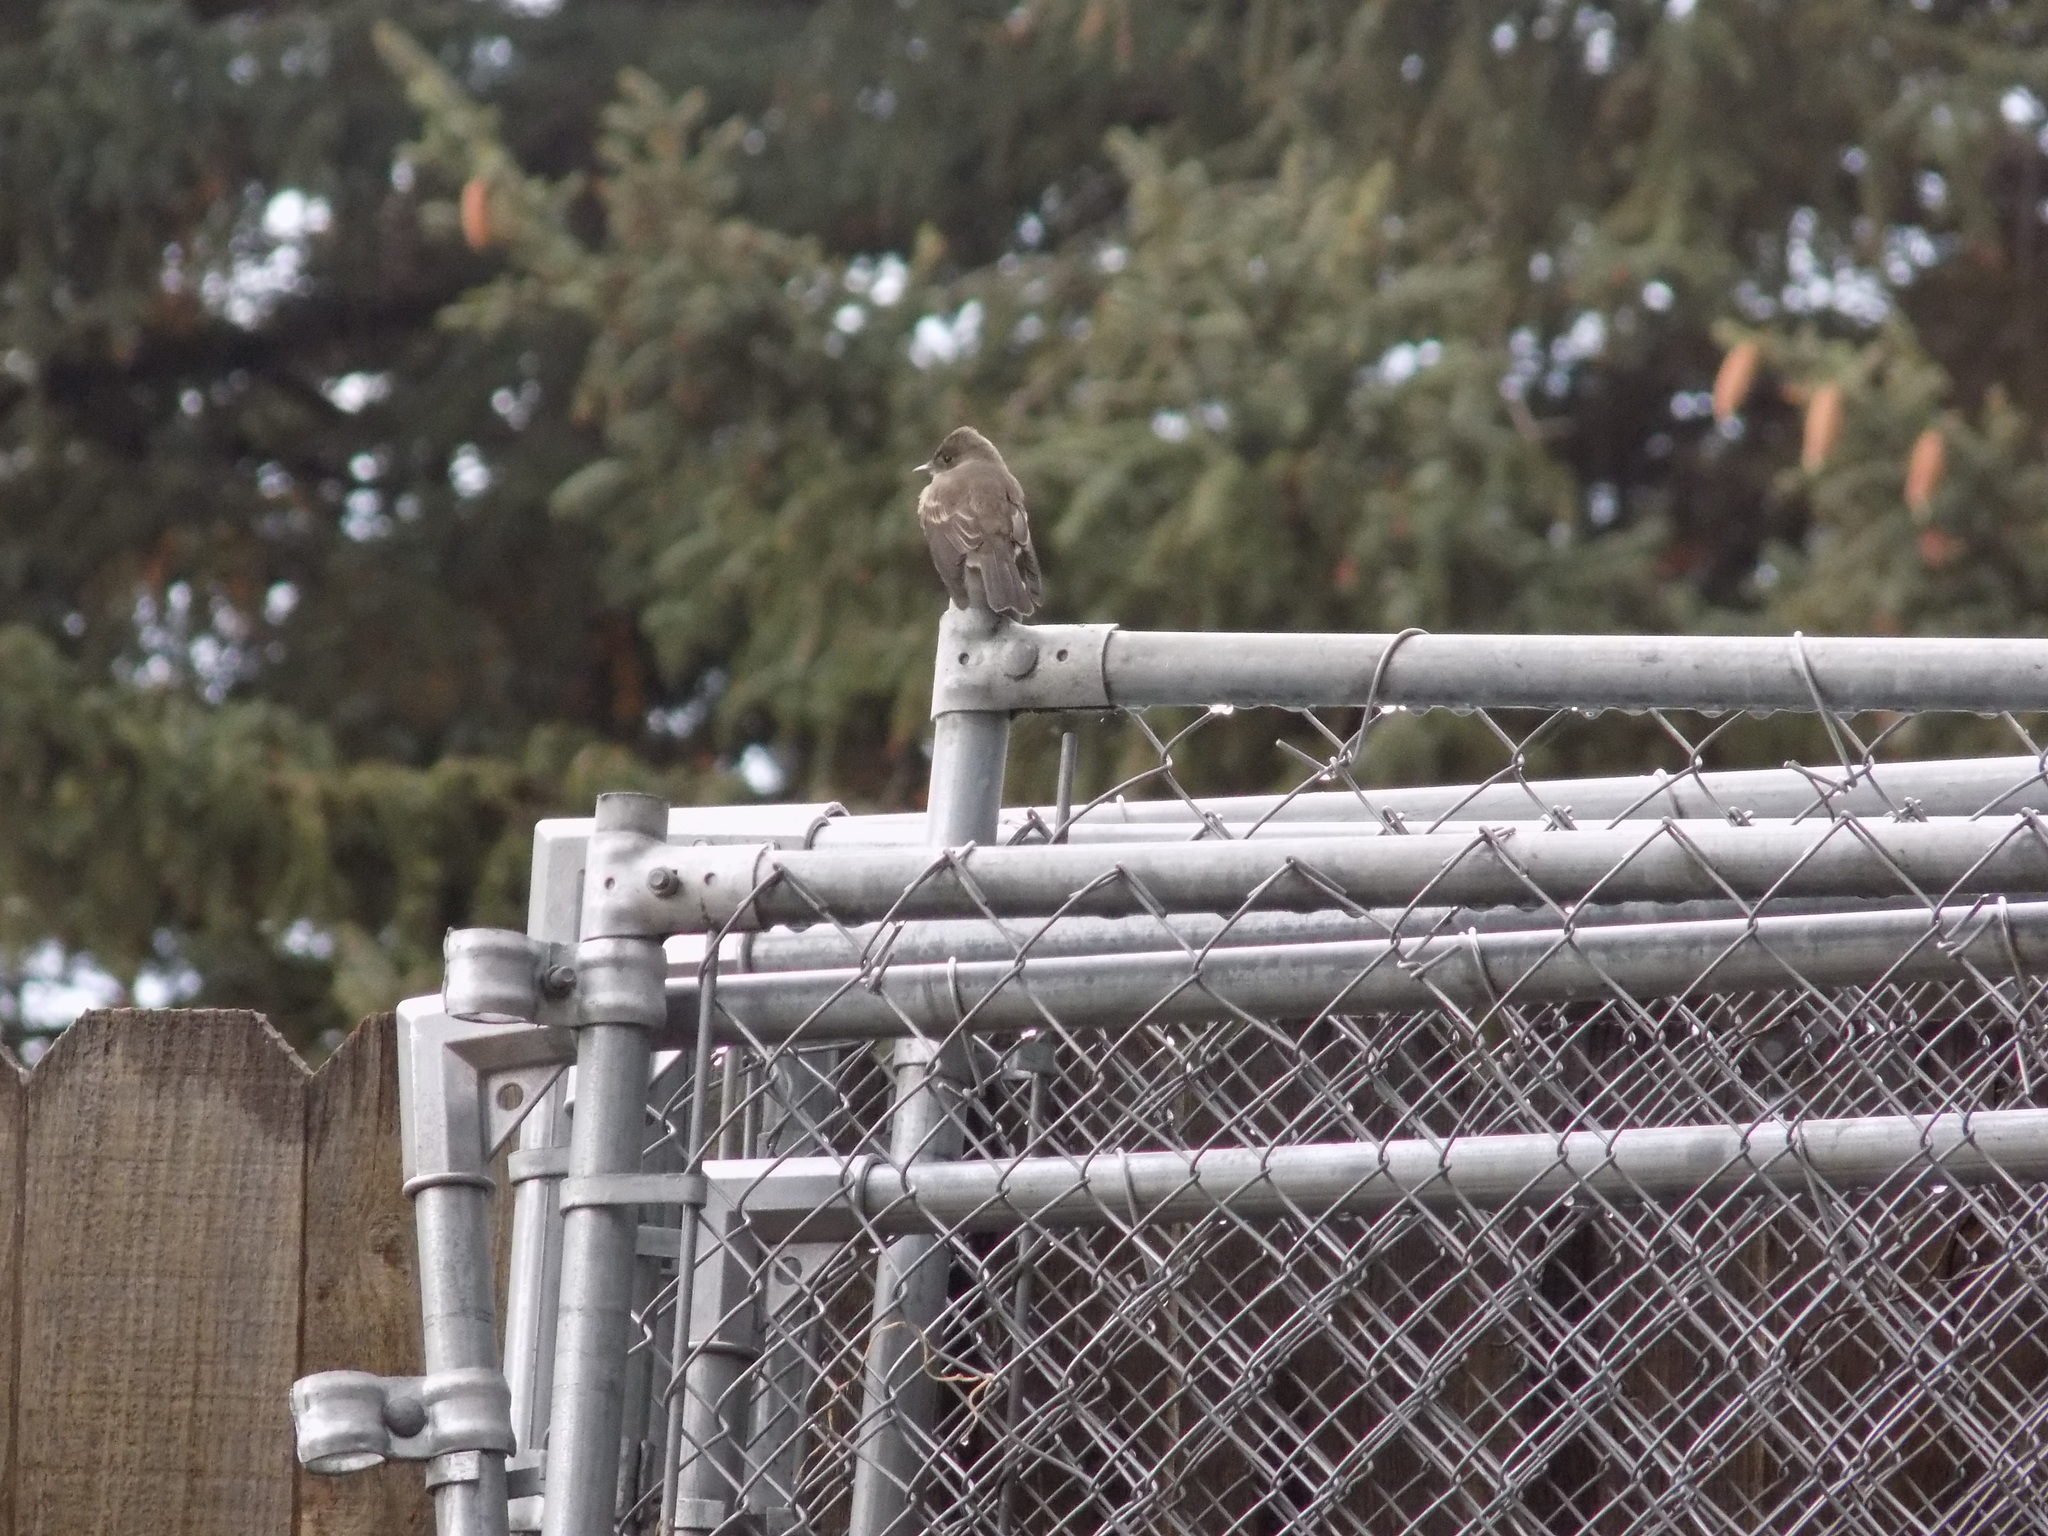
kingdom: Animalia
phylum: Chordata
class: Aves
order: Passeriformes
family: Tyrannidae
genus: Contopus
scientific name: Contopus sordidulus
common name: Western wood-pewee
